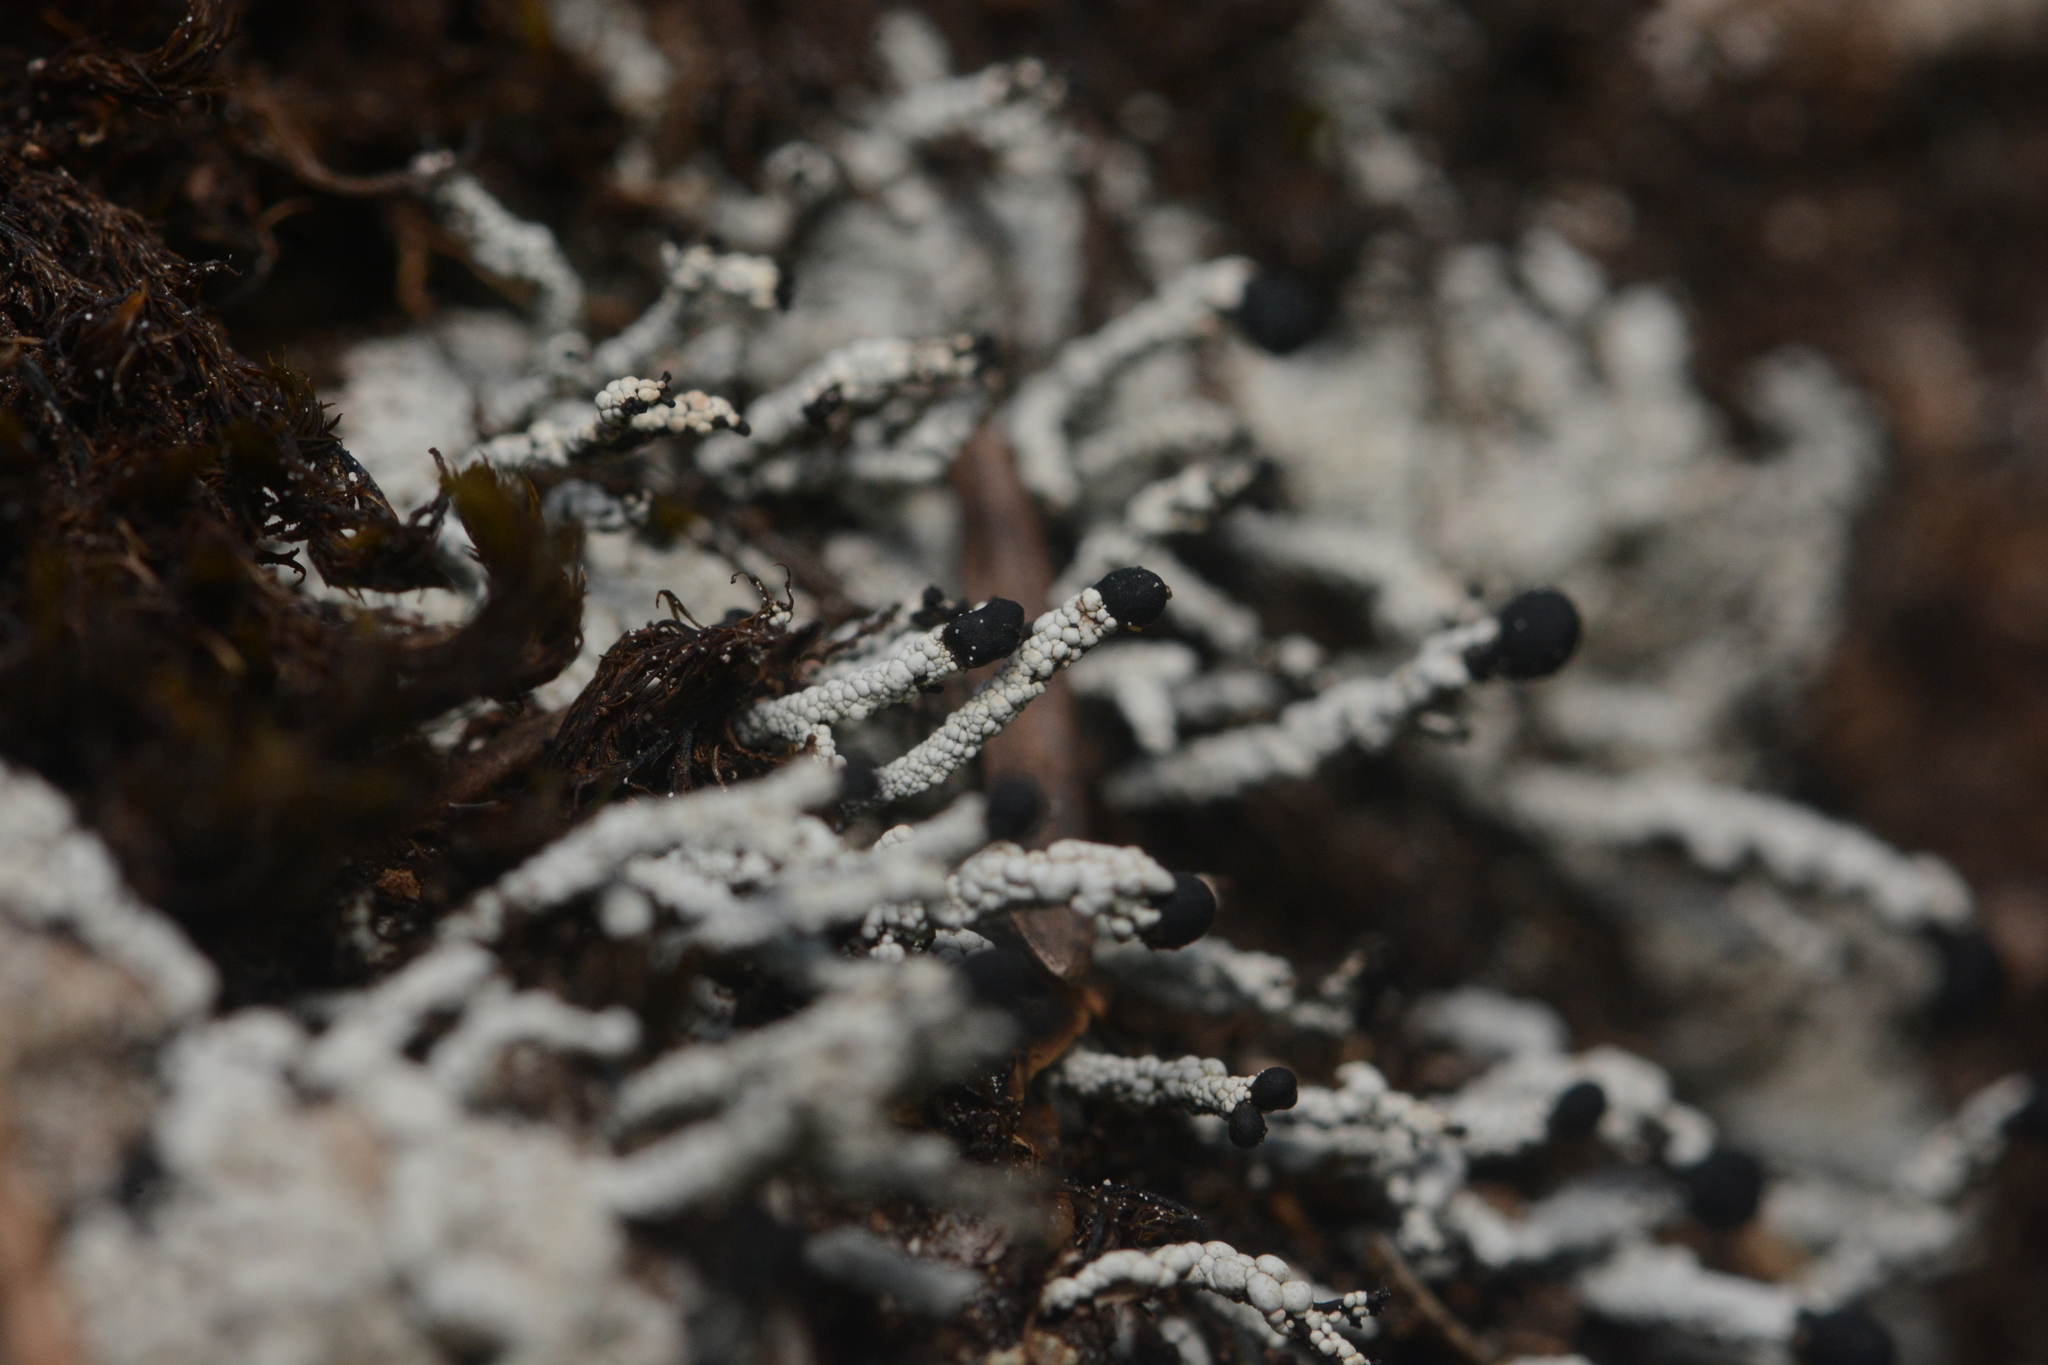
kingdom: Fungi
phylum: Ascomycota
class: Lecanoromycetes
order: Lecanorales
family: Cladoniaceae
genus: Pilophorus
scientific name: Pilophorus nigricaulis
